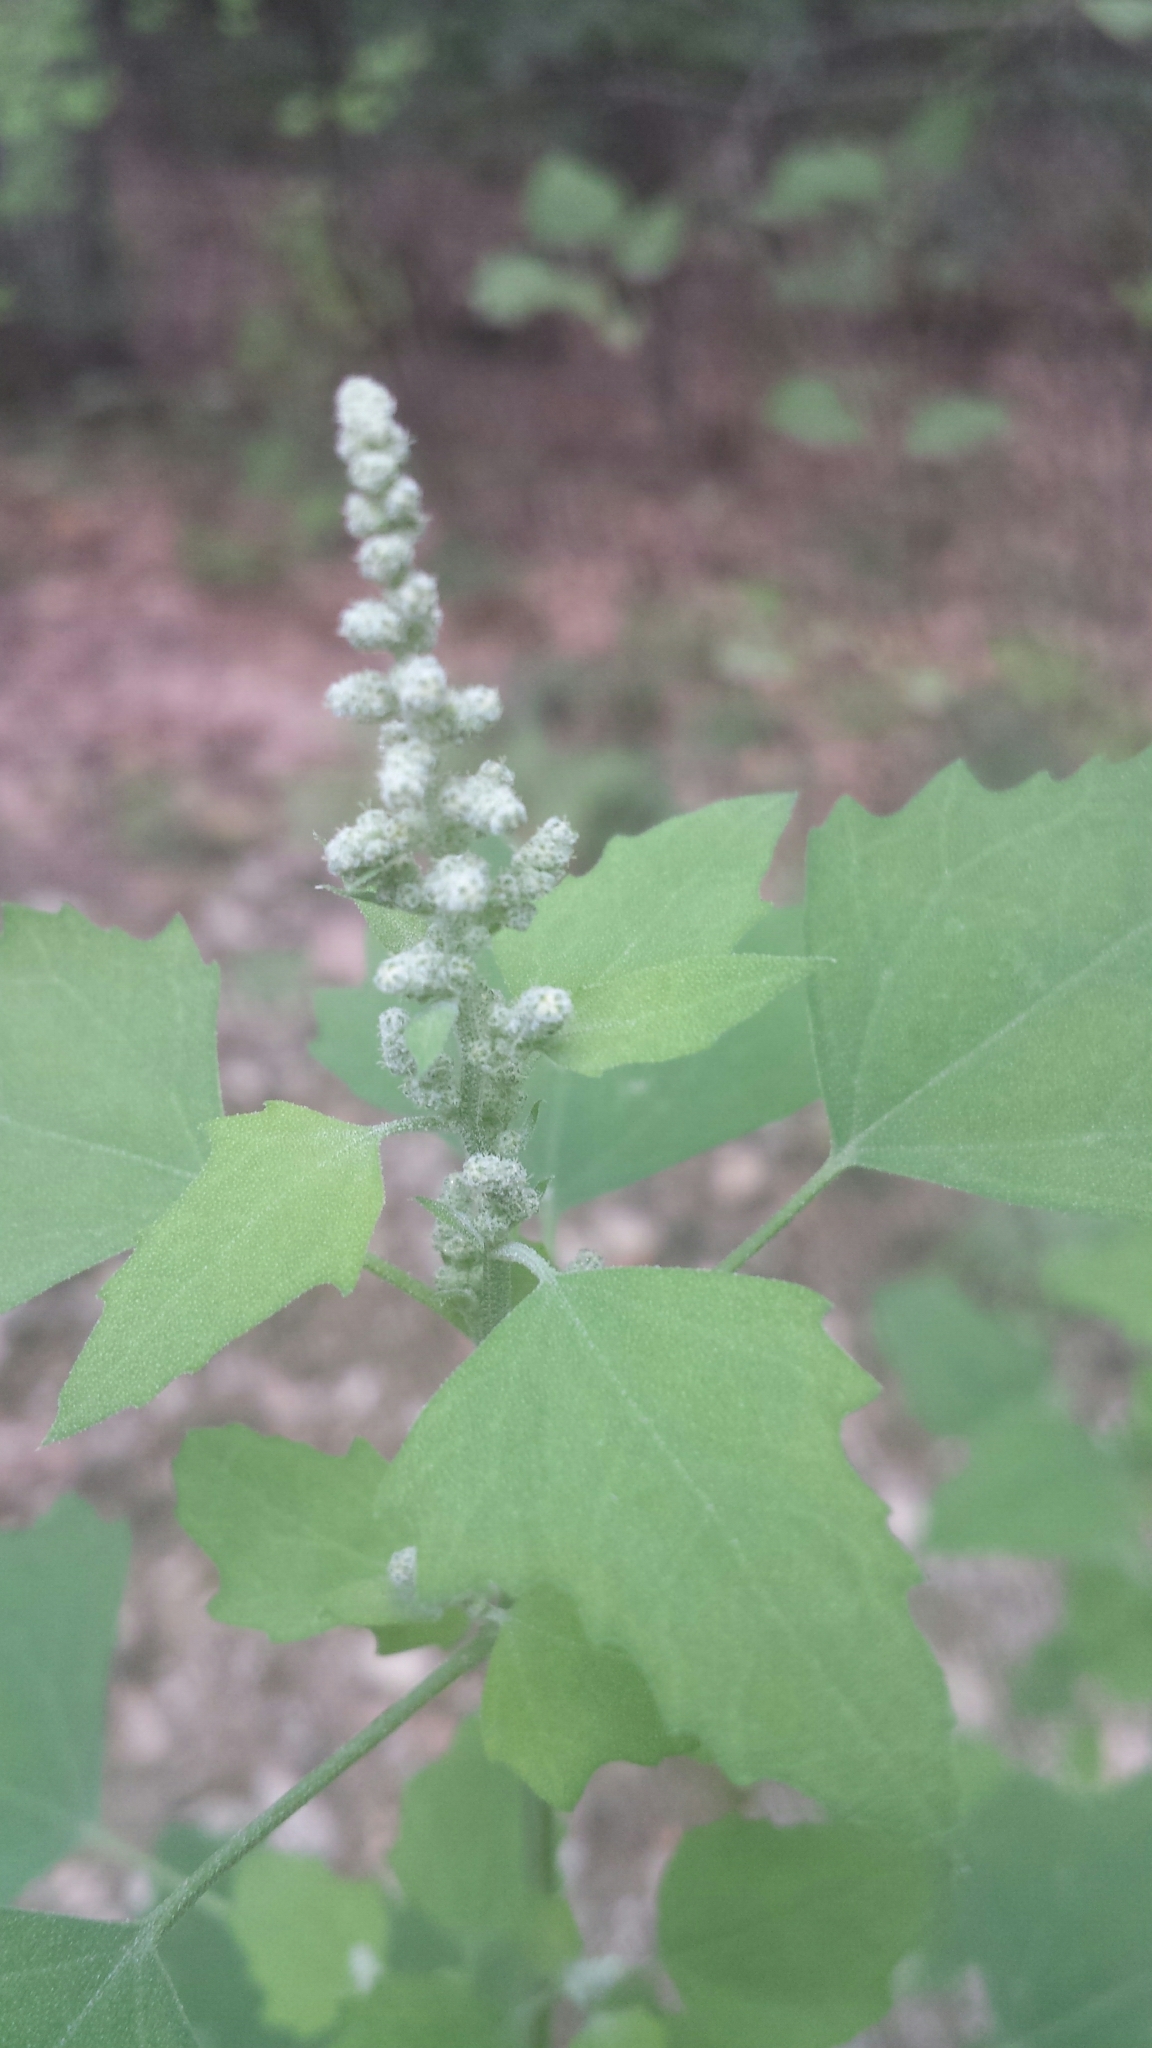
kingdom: Plantae
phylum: Tracheophyta
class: Magnoliopsida
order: Caryophyllales
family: Amaranthaceae
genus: Chenopodium
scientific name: Chenopodium album
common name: Fat-hen
